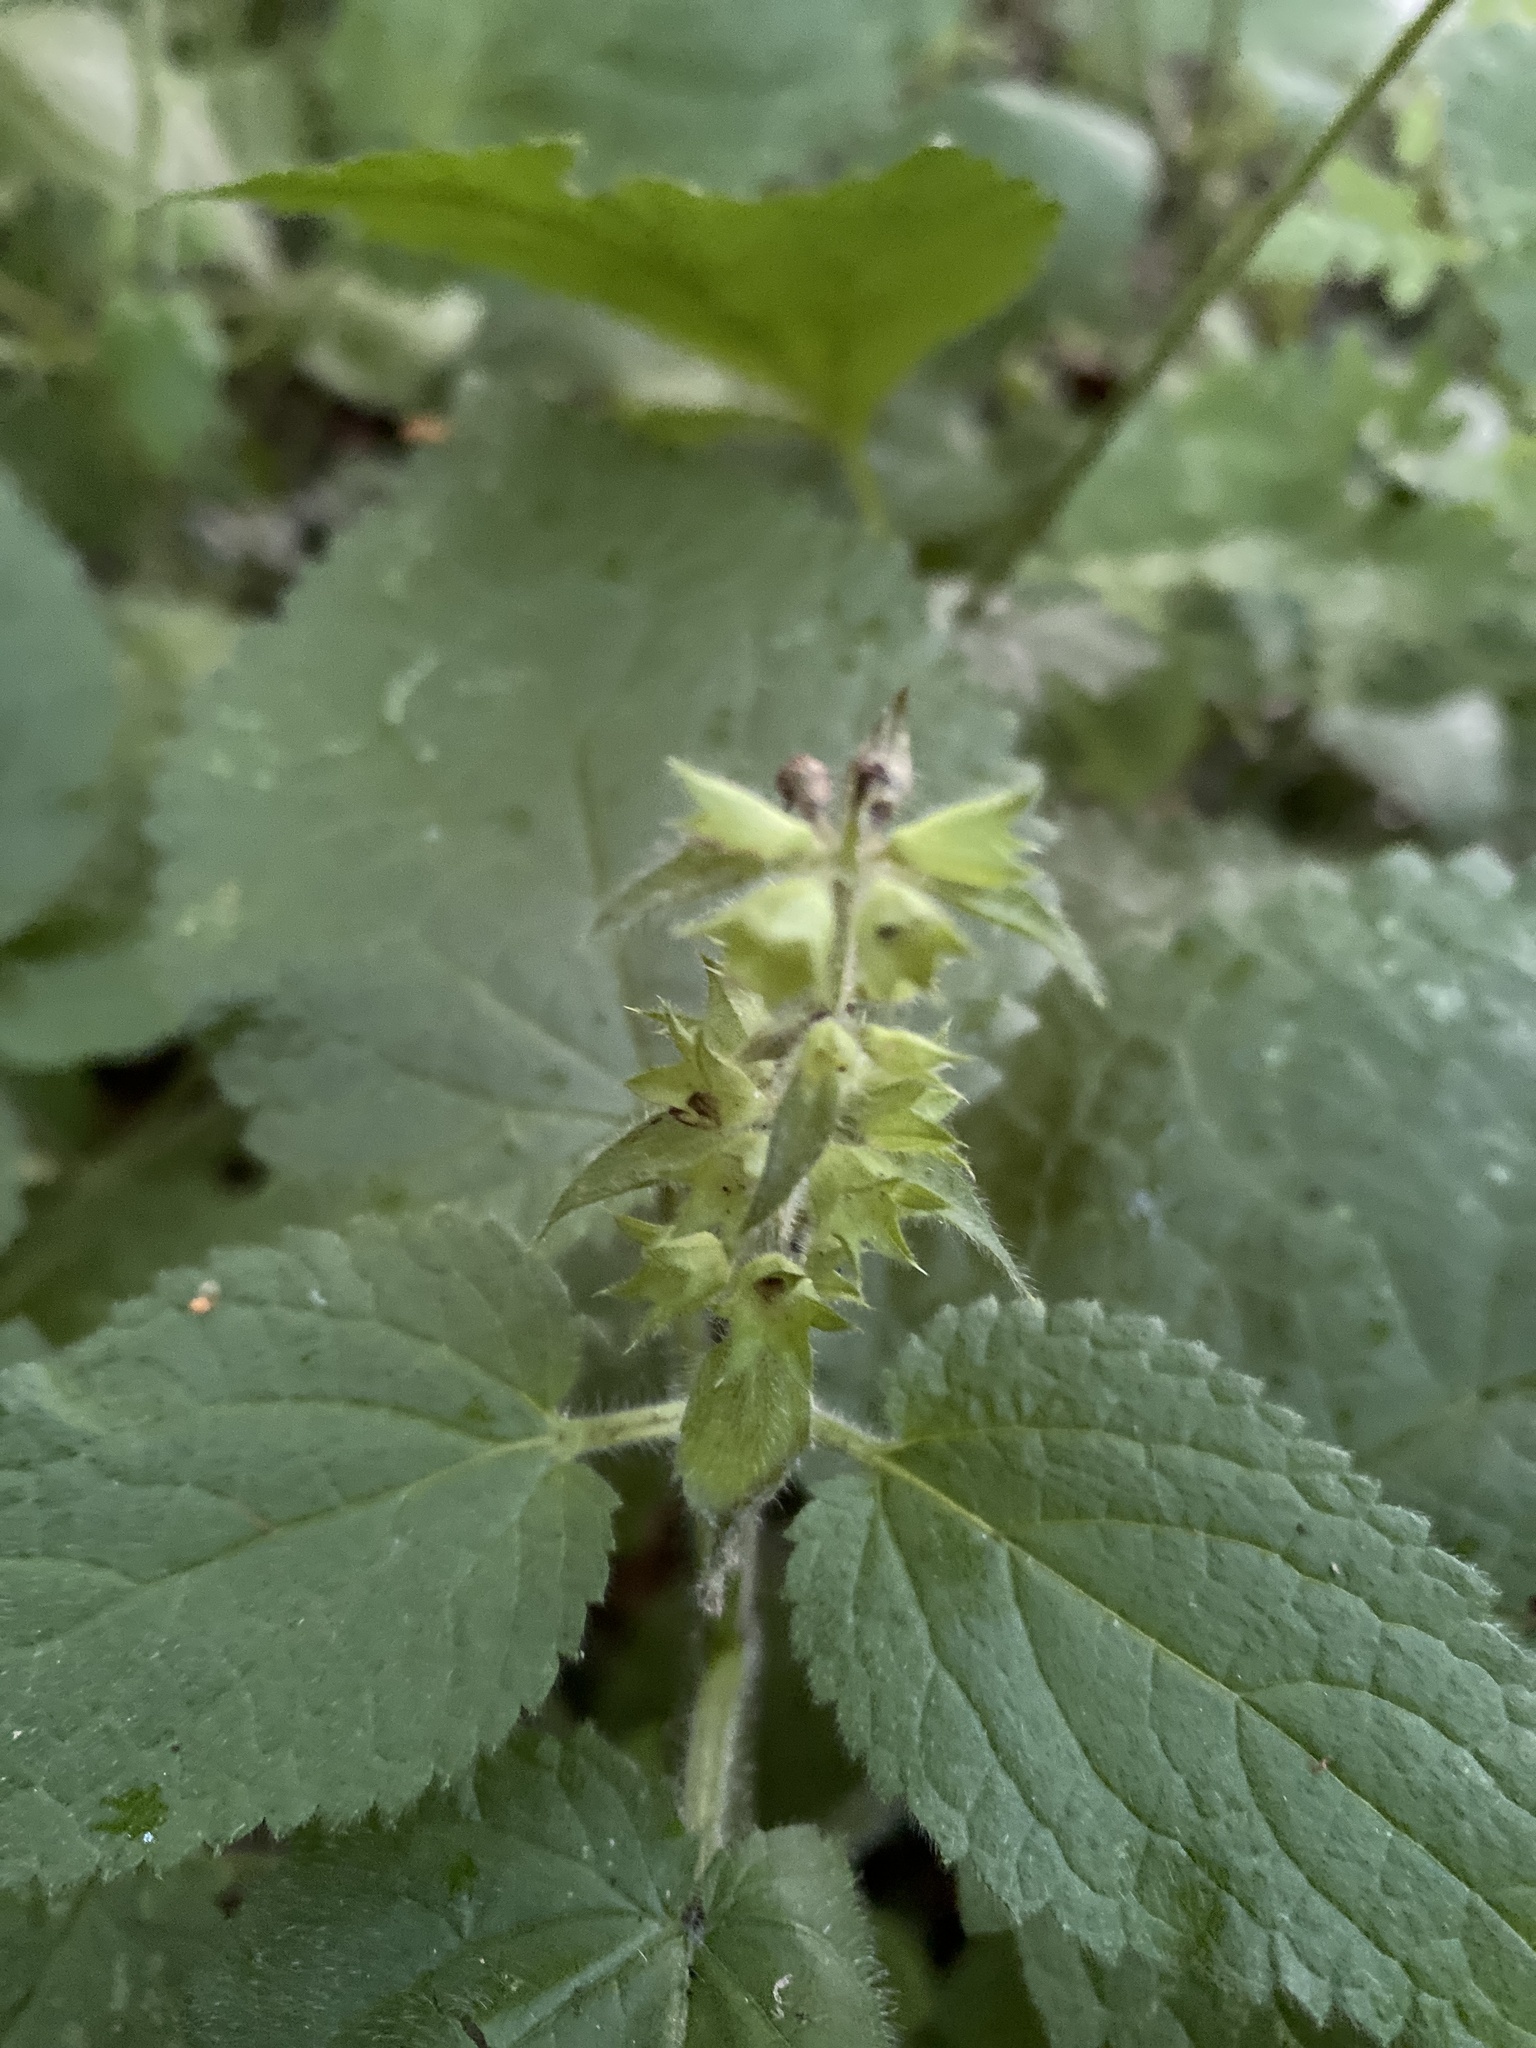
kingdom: Plantae
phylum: Tracheophyta
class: Magnoliopsida
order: Lamiales
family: Lamiaceae
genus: Stachys
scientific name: Stachys sylvatica
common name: Hedge woundwort
